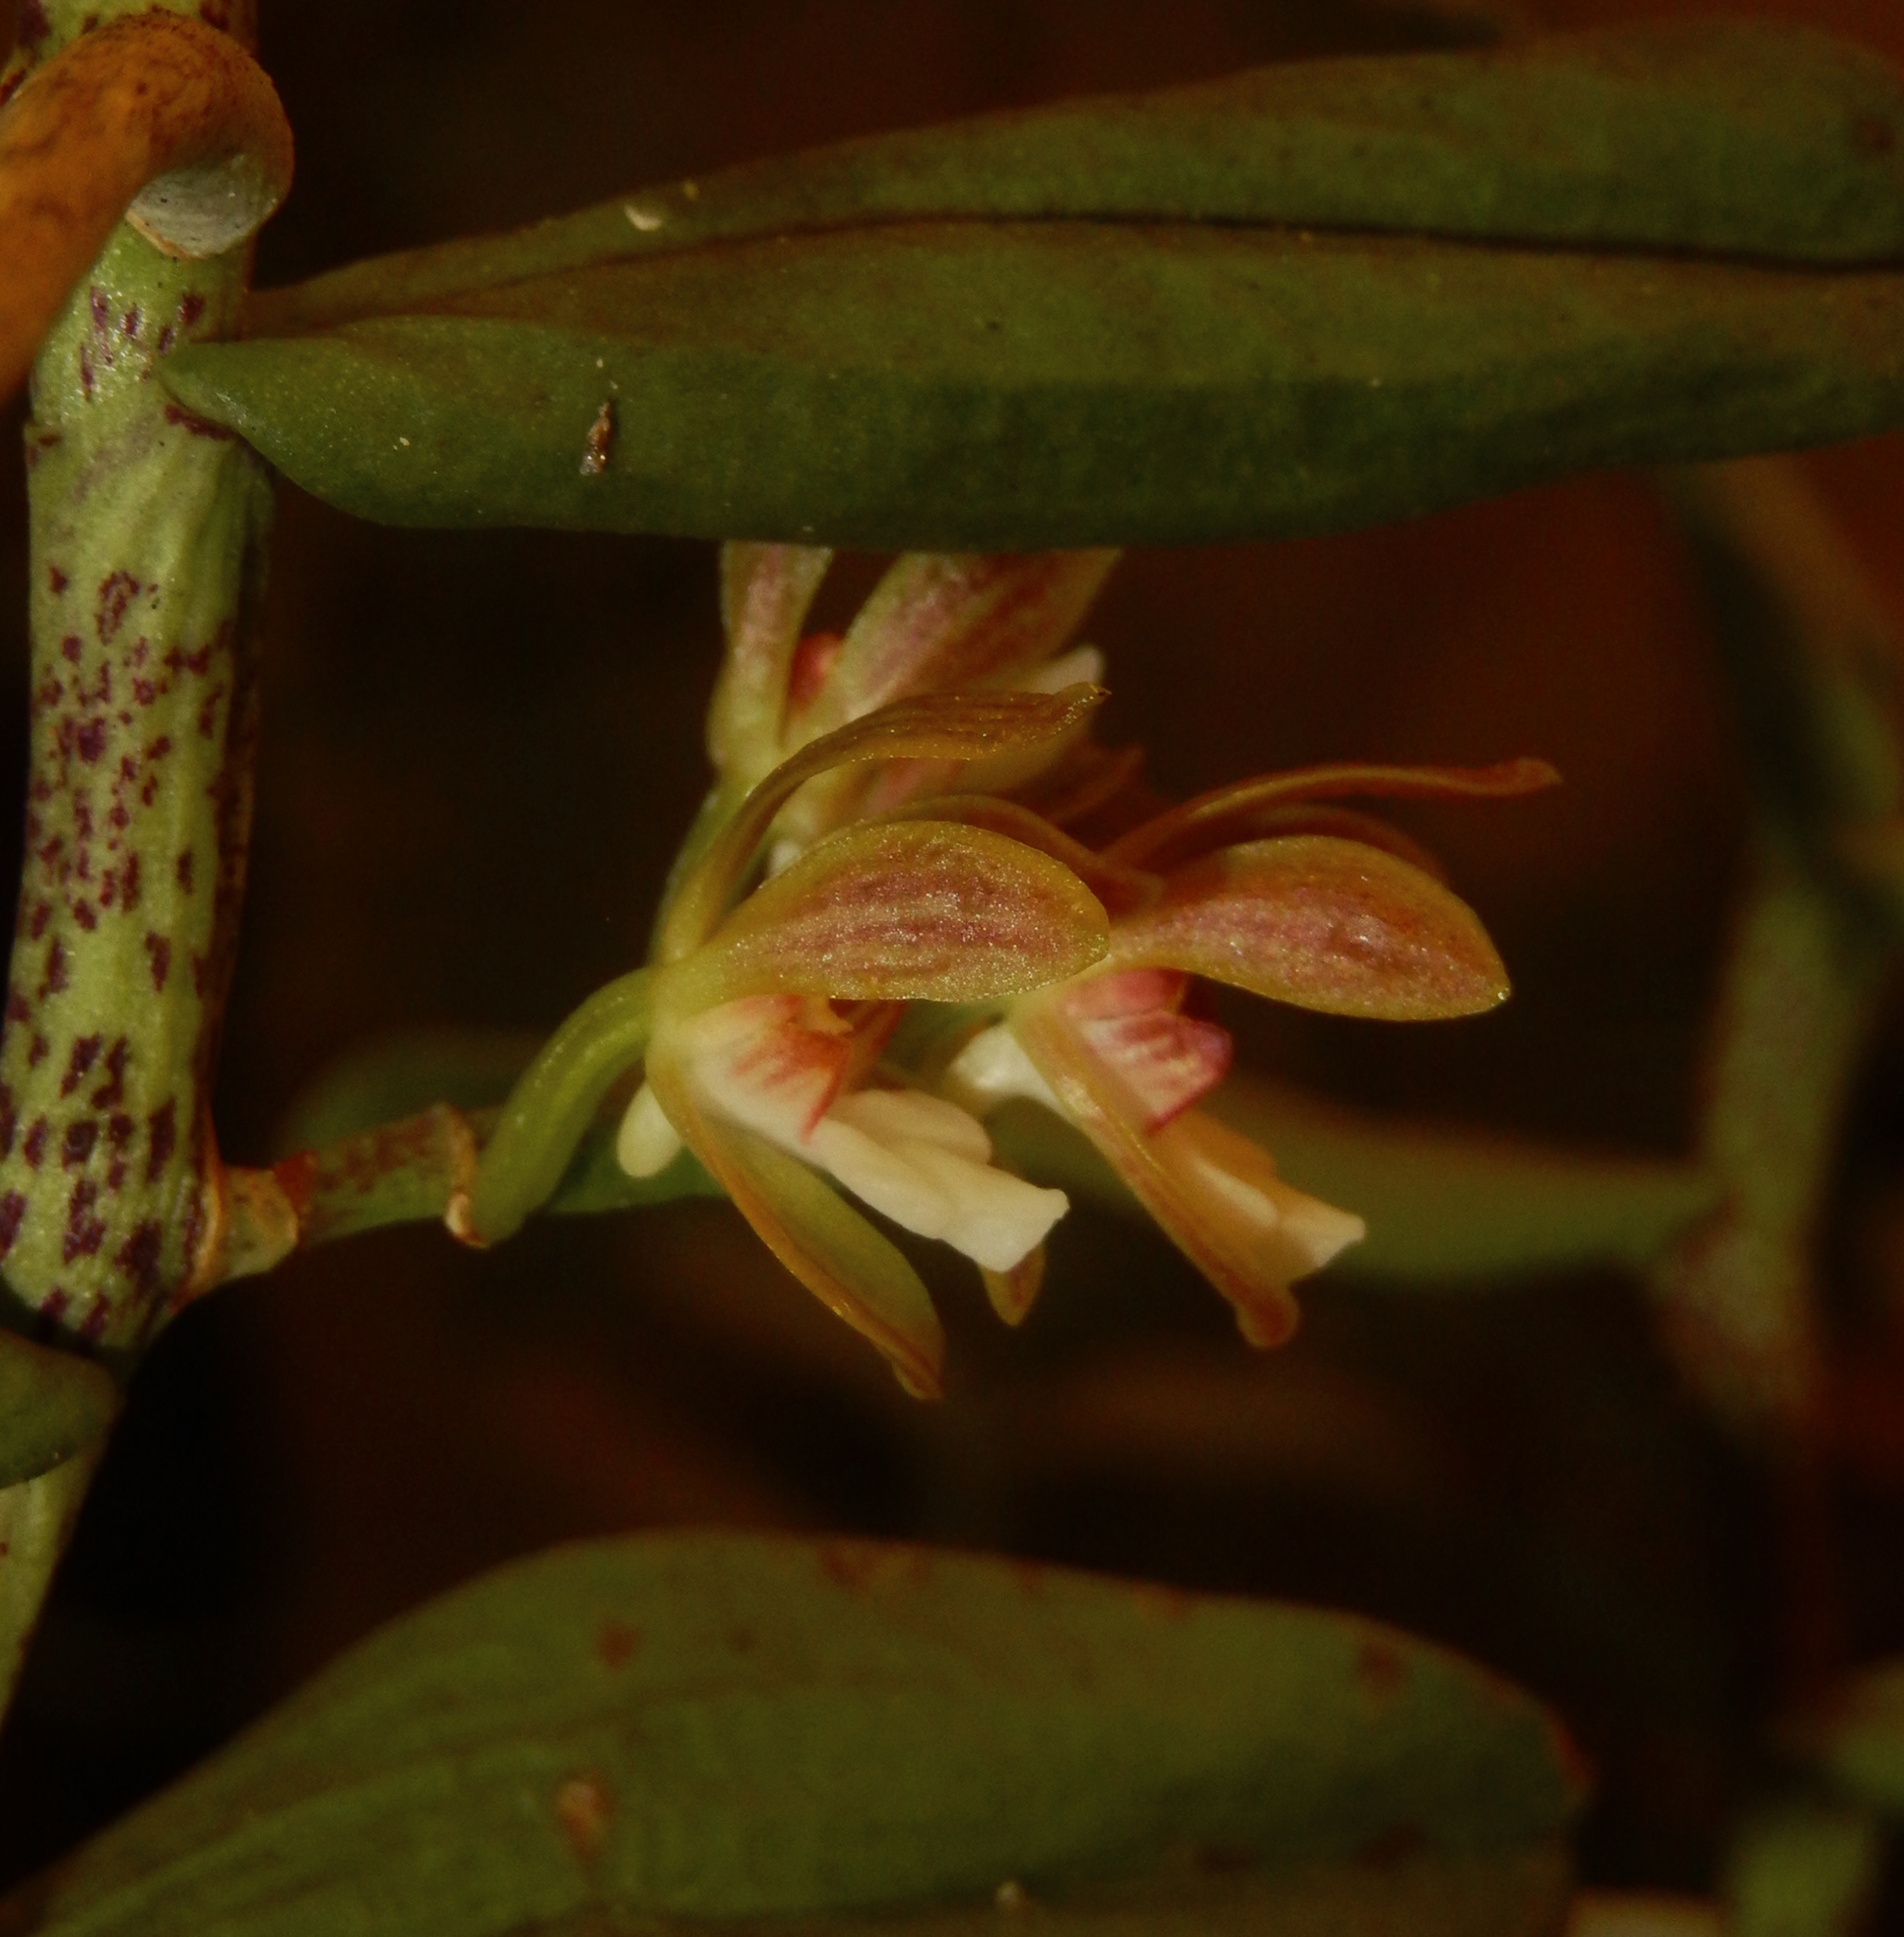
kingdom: Plantae
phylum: Tracheophyta
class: Liliopsida
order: Asparagales
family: Orchidaceae
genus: Trichoglottis
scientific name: Trichoglottis tenera
